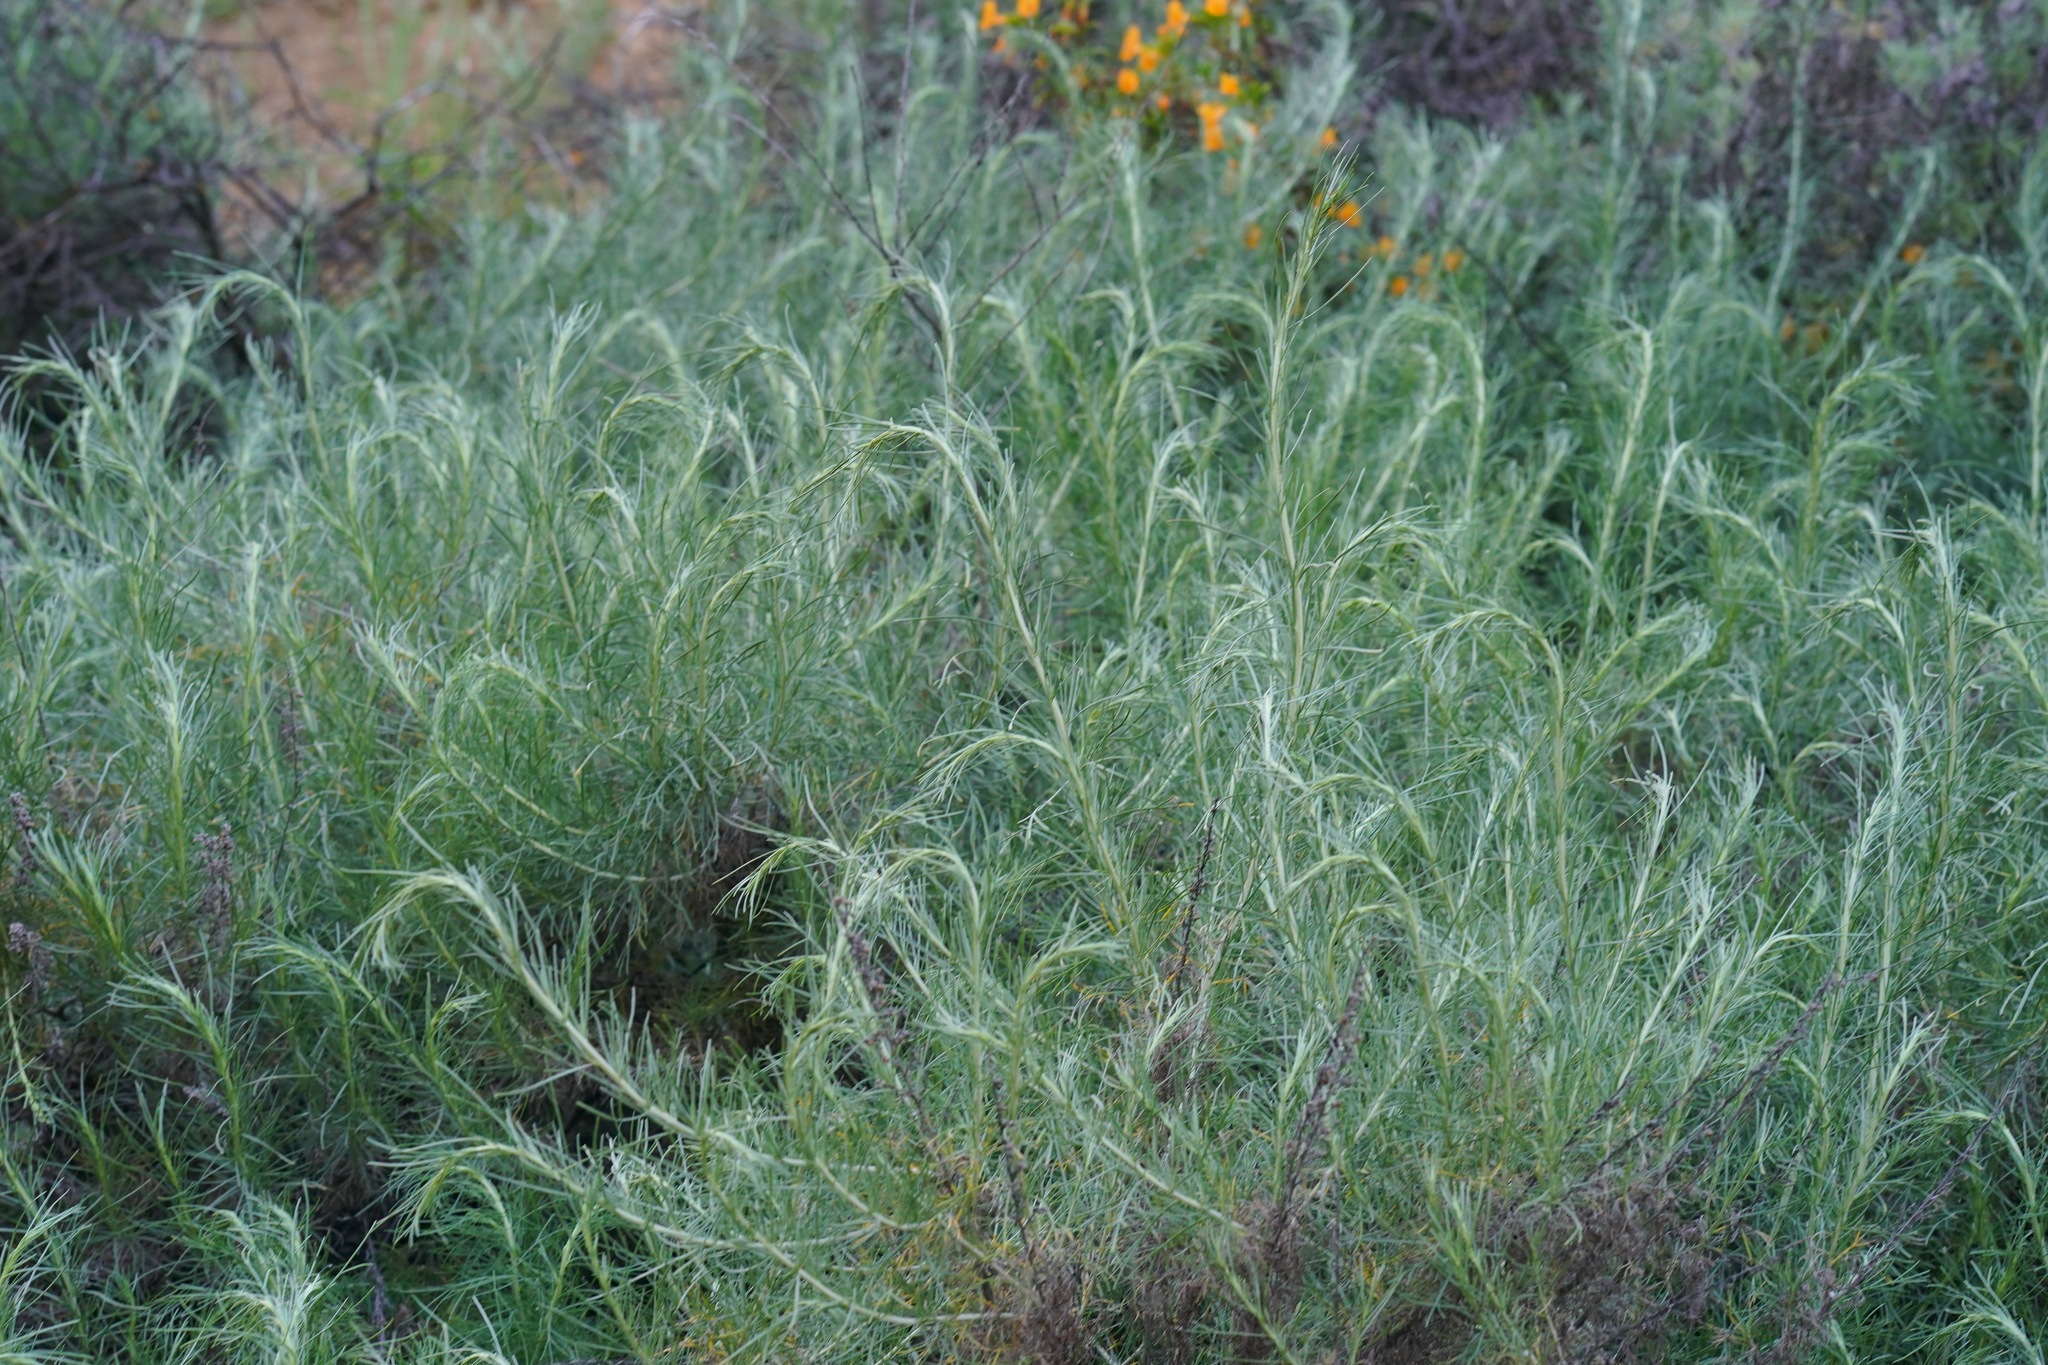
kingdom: Plantae
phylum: Tracheophyta
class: Magnoliopsida
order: Asterales
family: Asteraceae
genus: Artemisia
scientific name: Artemisia californica
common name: California sagebrush
